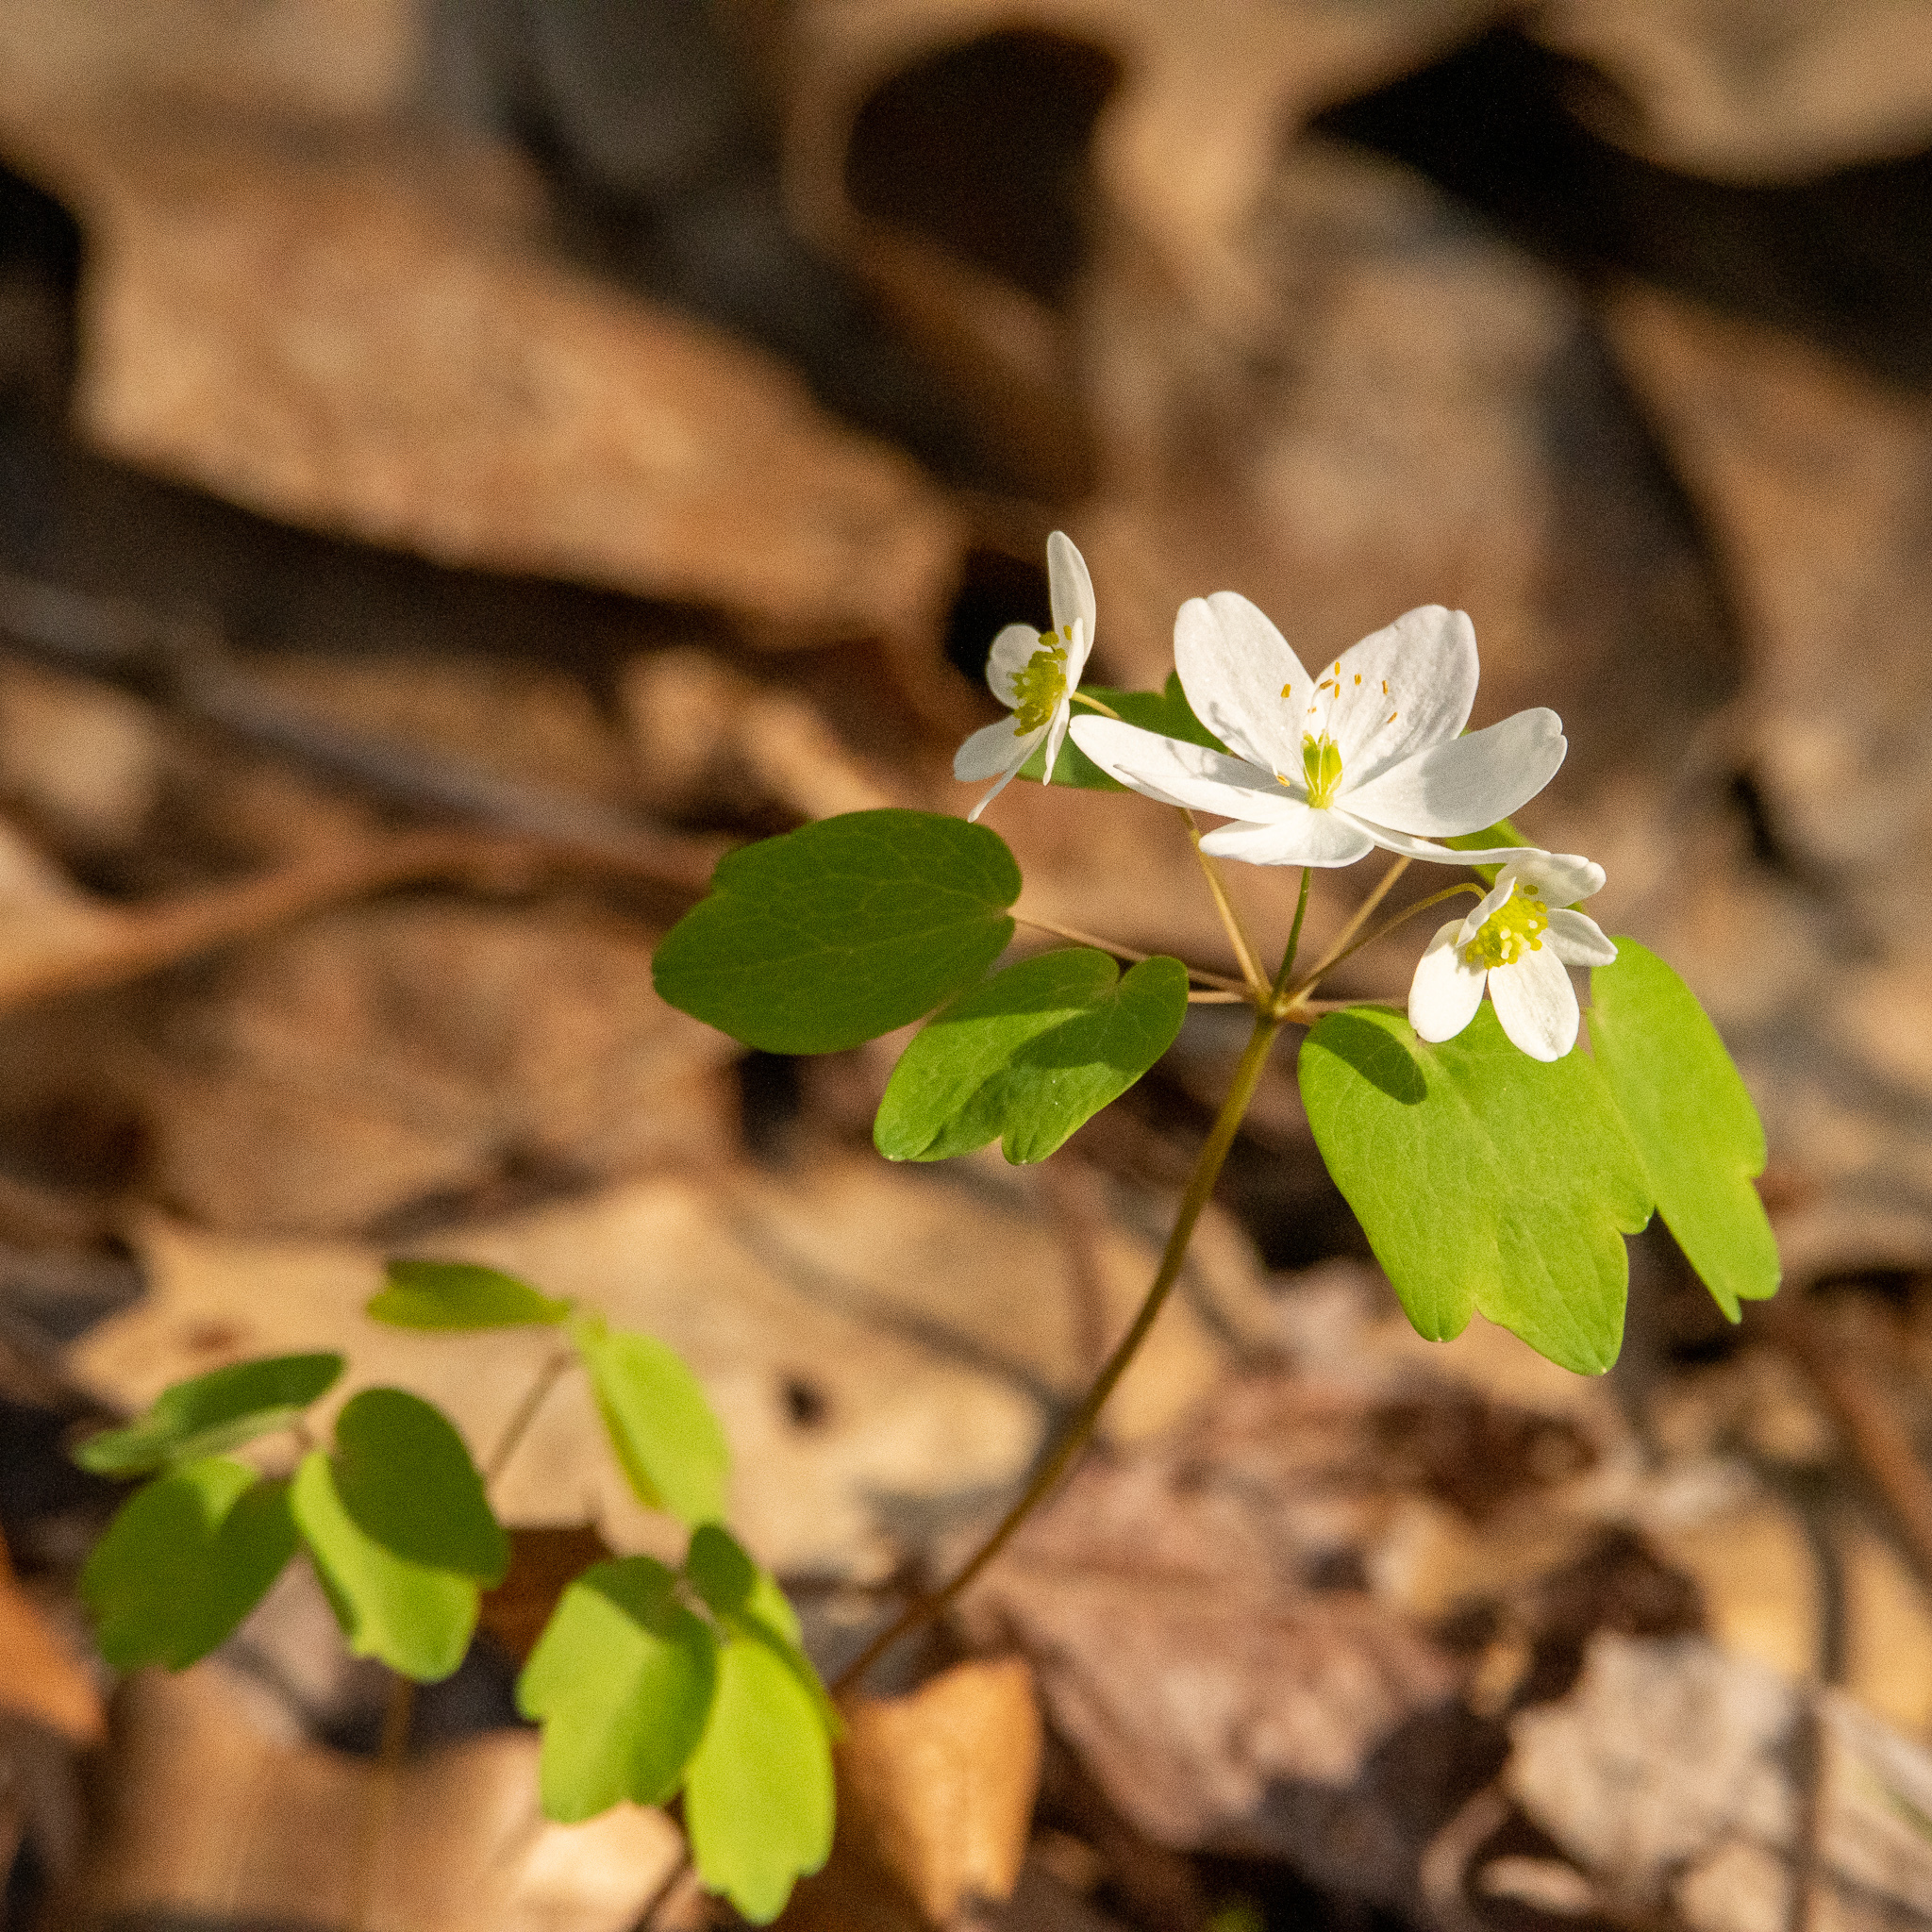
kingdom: Plantae
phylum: Tracheophyta
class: Magnoliopsida
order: Ranunculales
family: Ranunculaceae
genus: Thalictrum
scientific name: Thalictrum thalictroides
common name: Rue-anemone
